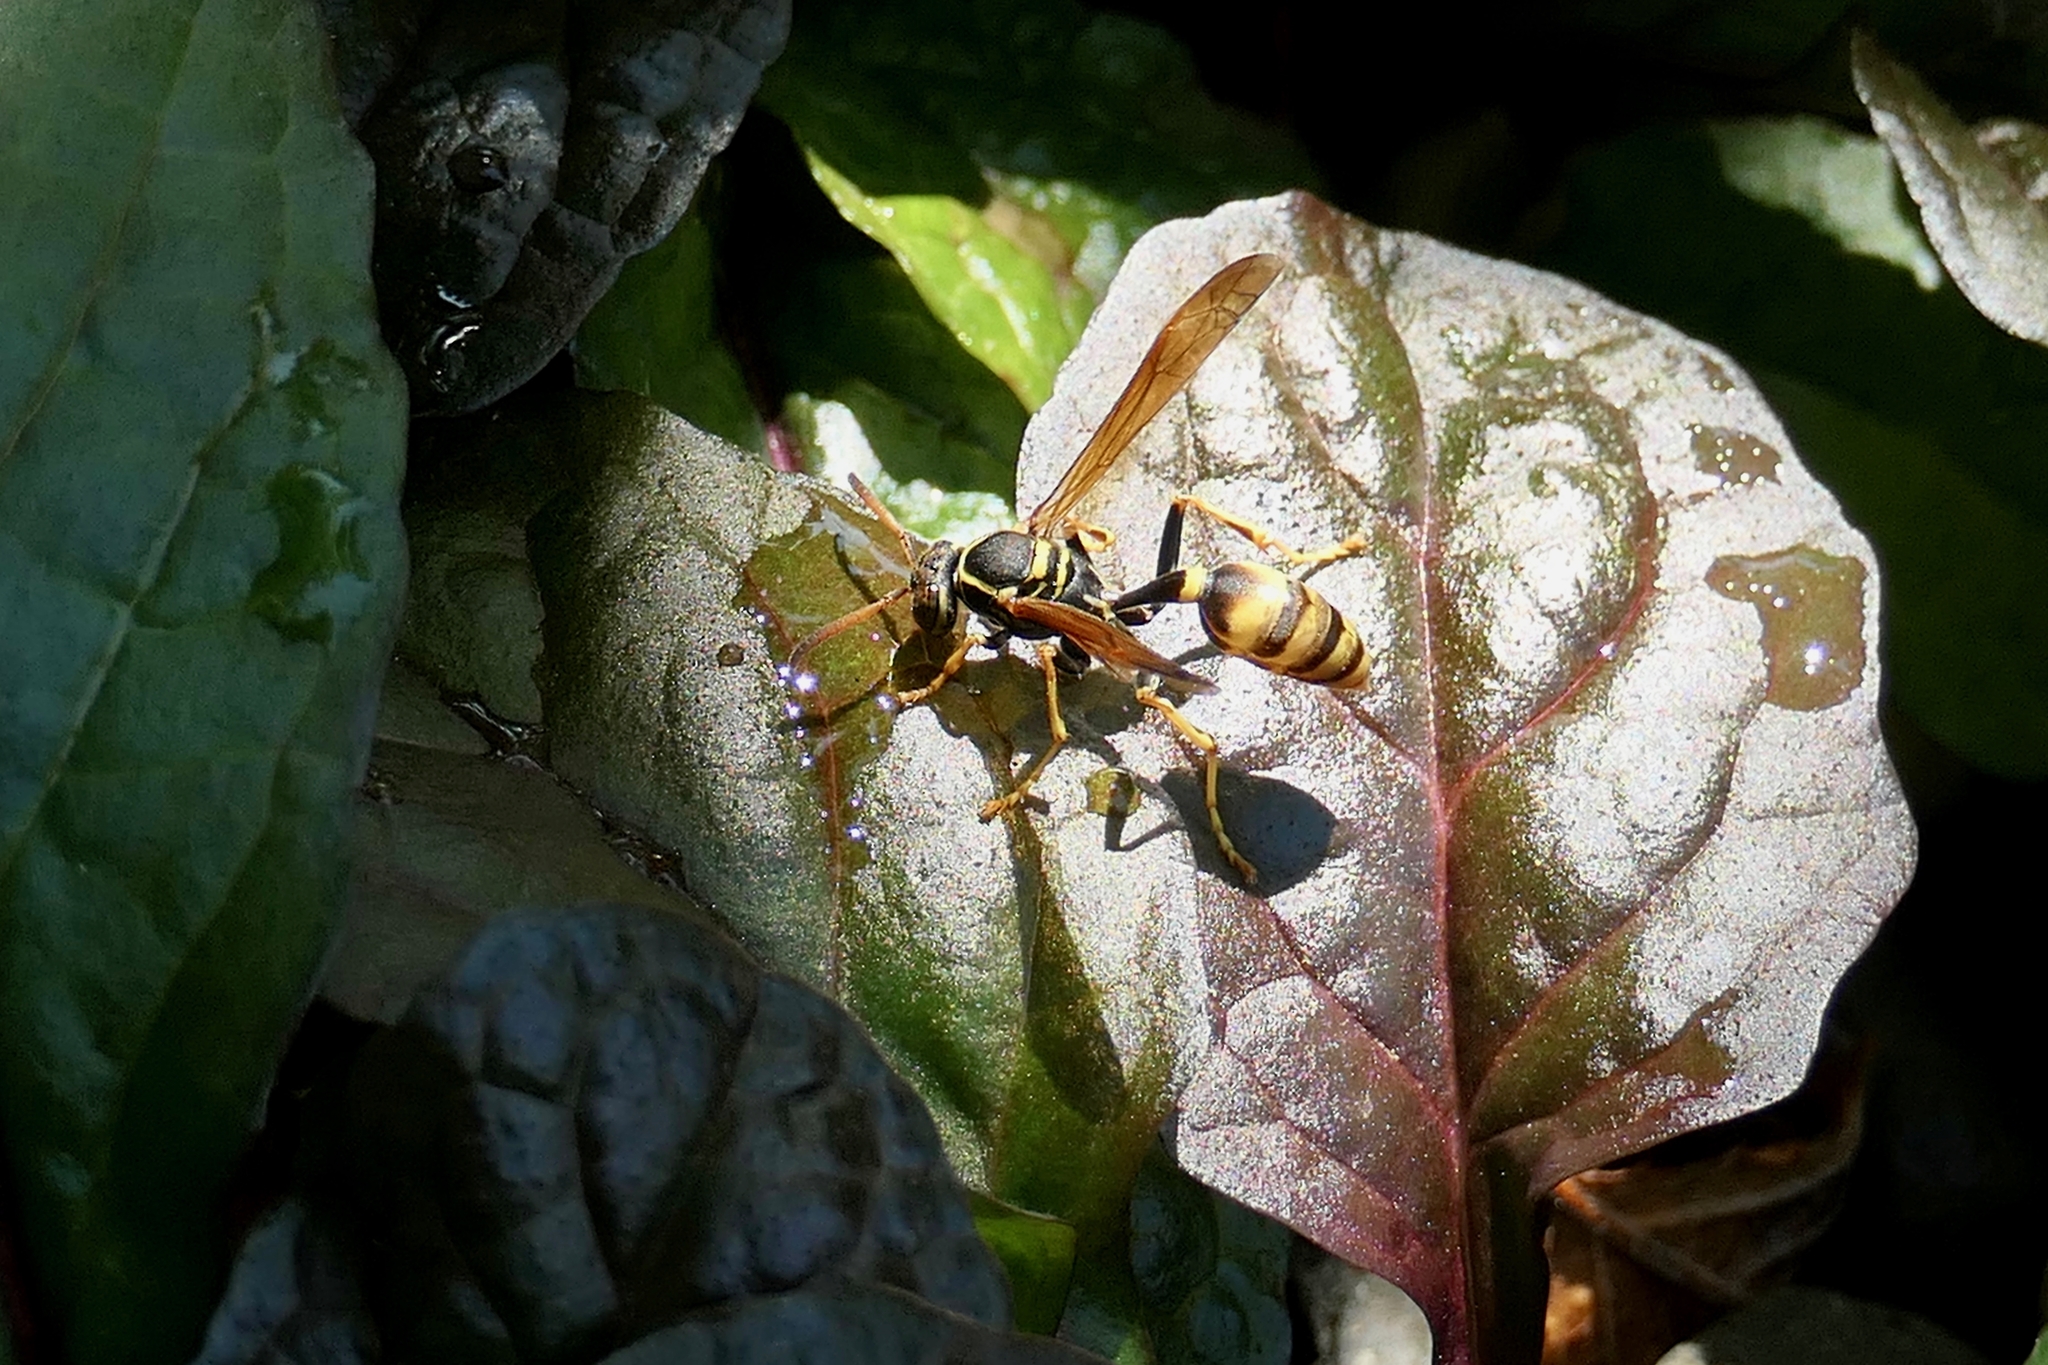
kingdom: Animalia
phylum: Arthropoda
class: Insecta
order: Hymenoptera
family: Vespidae
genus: Mischocyttarus
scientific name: Mischocyttarus flavitarsis
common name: Wasp
